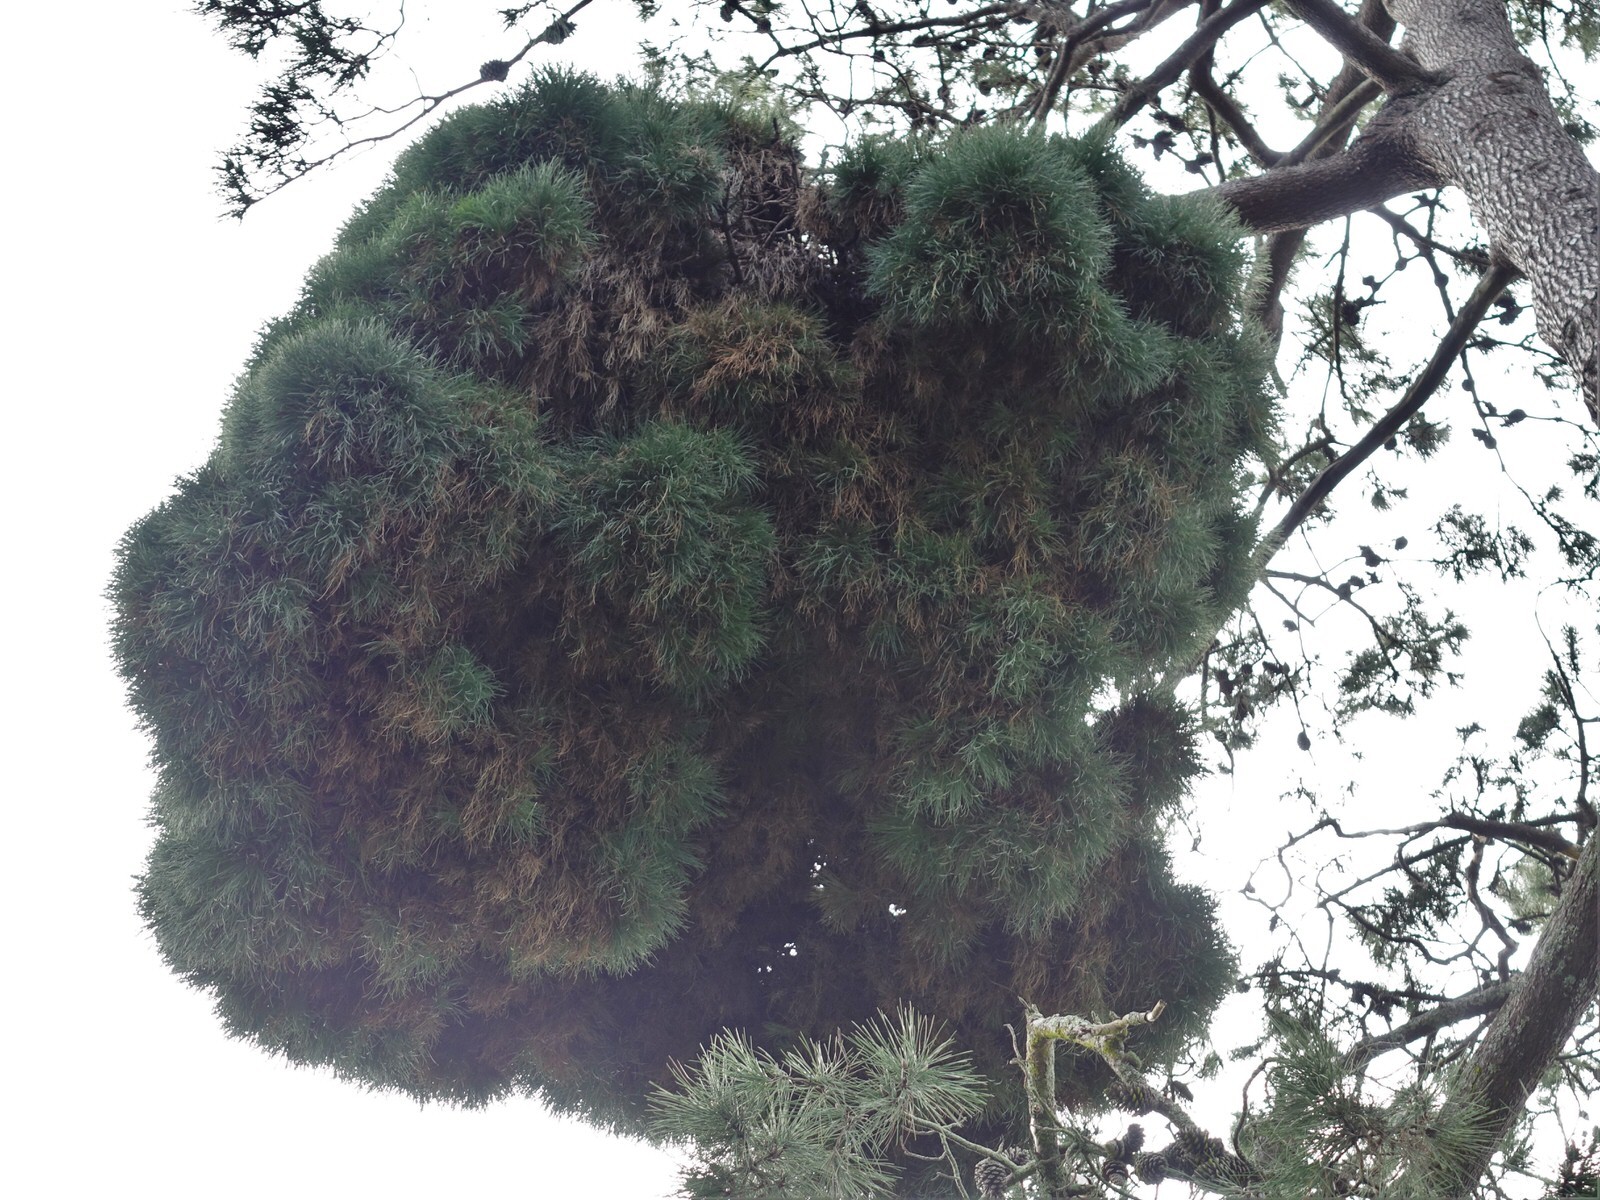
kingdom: Plantae
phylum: Tracheophyta
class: Pinopsida
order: Pinales
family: Pinaceae
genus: Pinus
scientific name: Pinus pinaster
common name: Maritime pine
